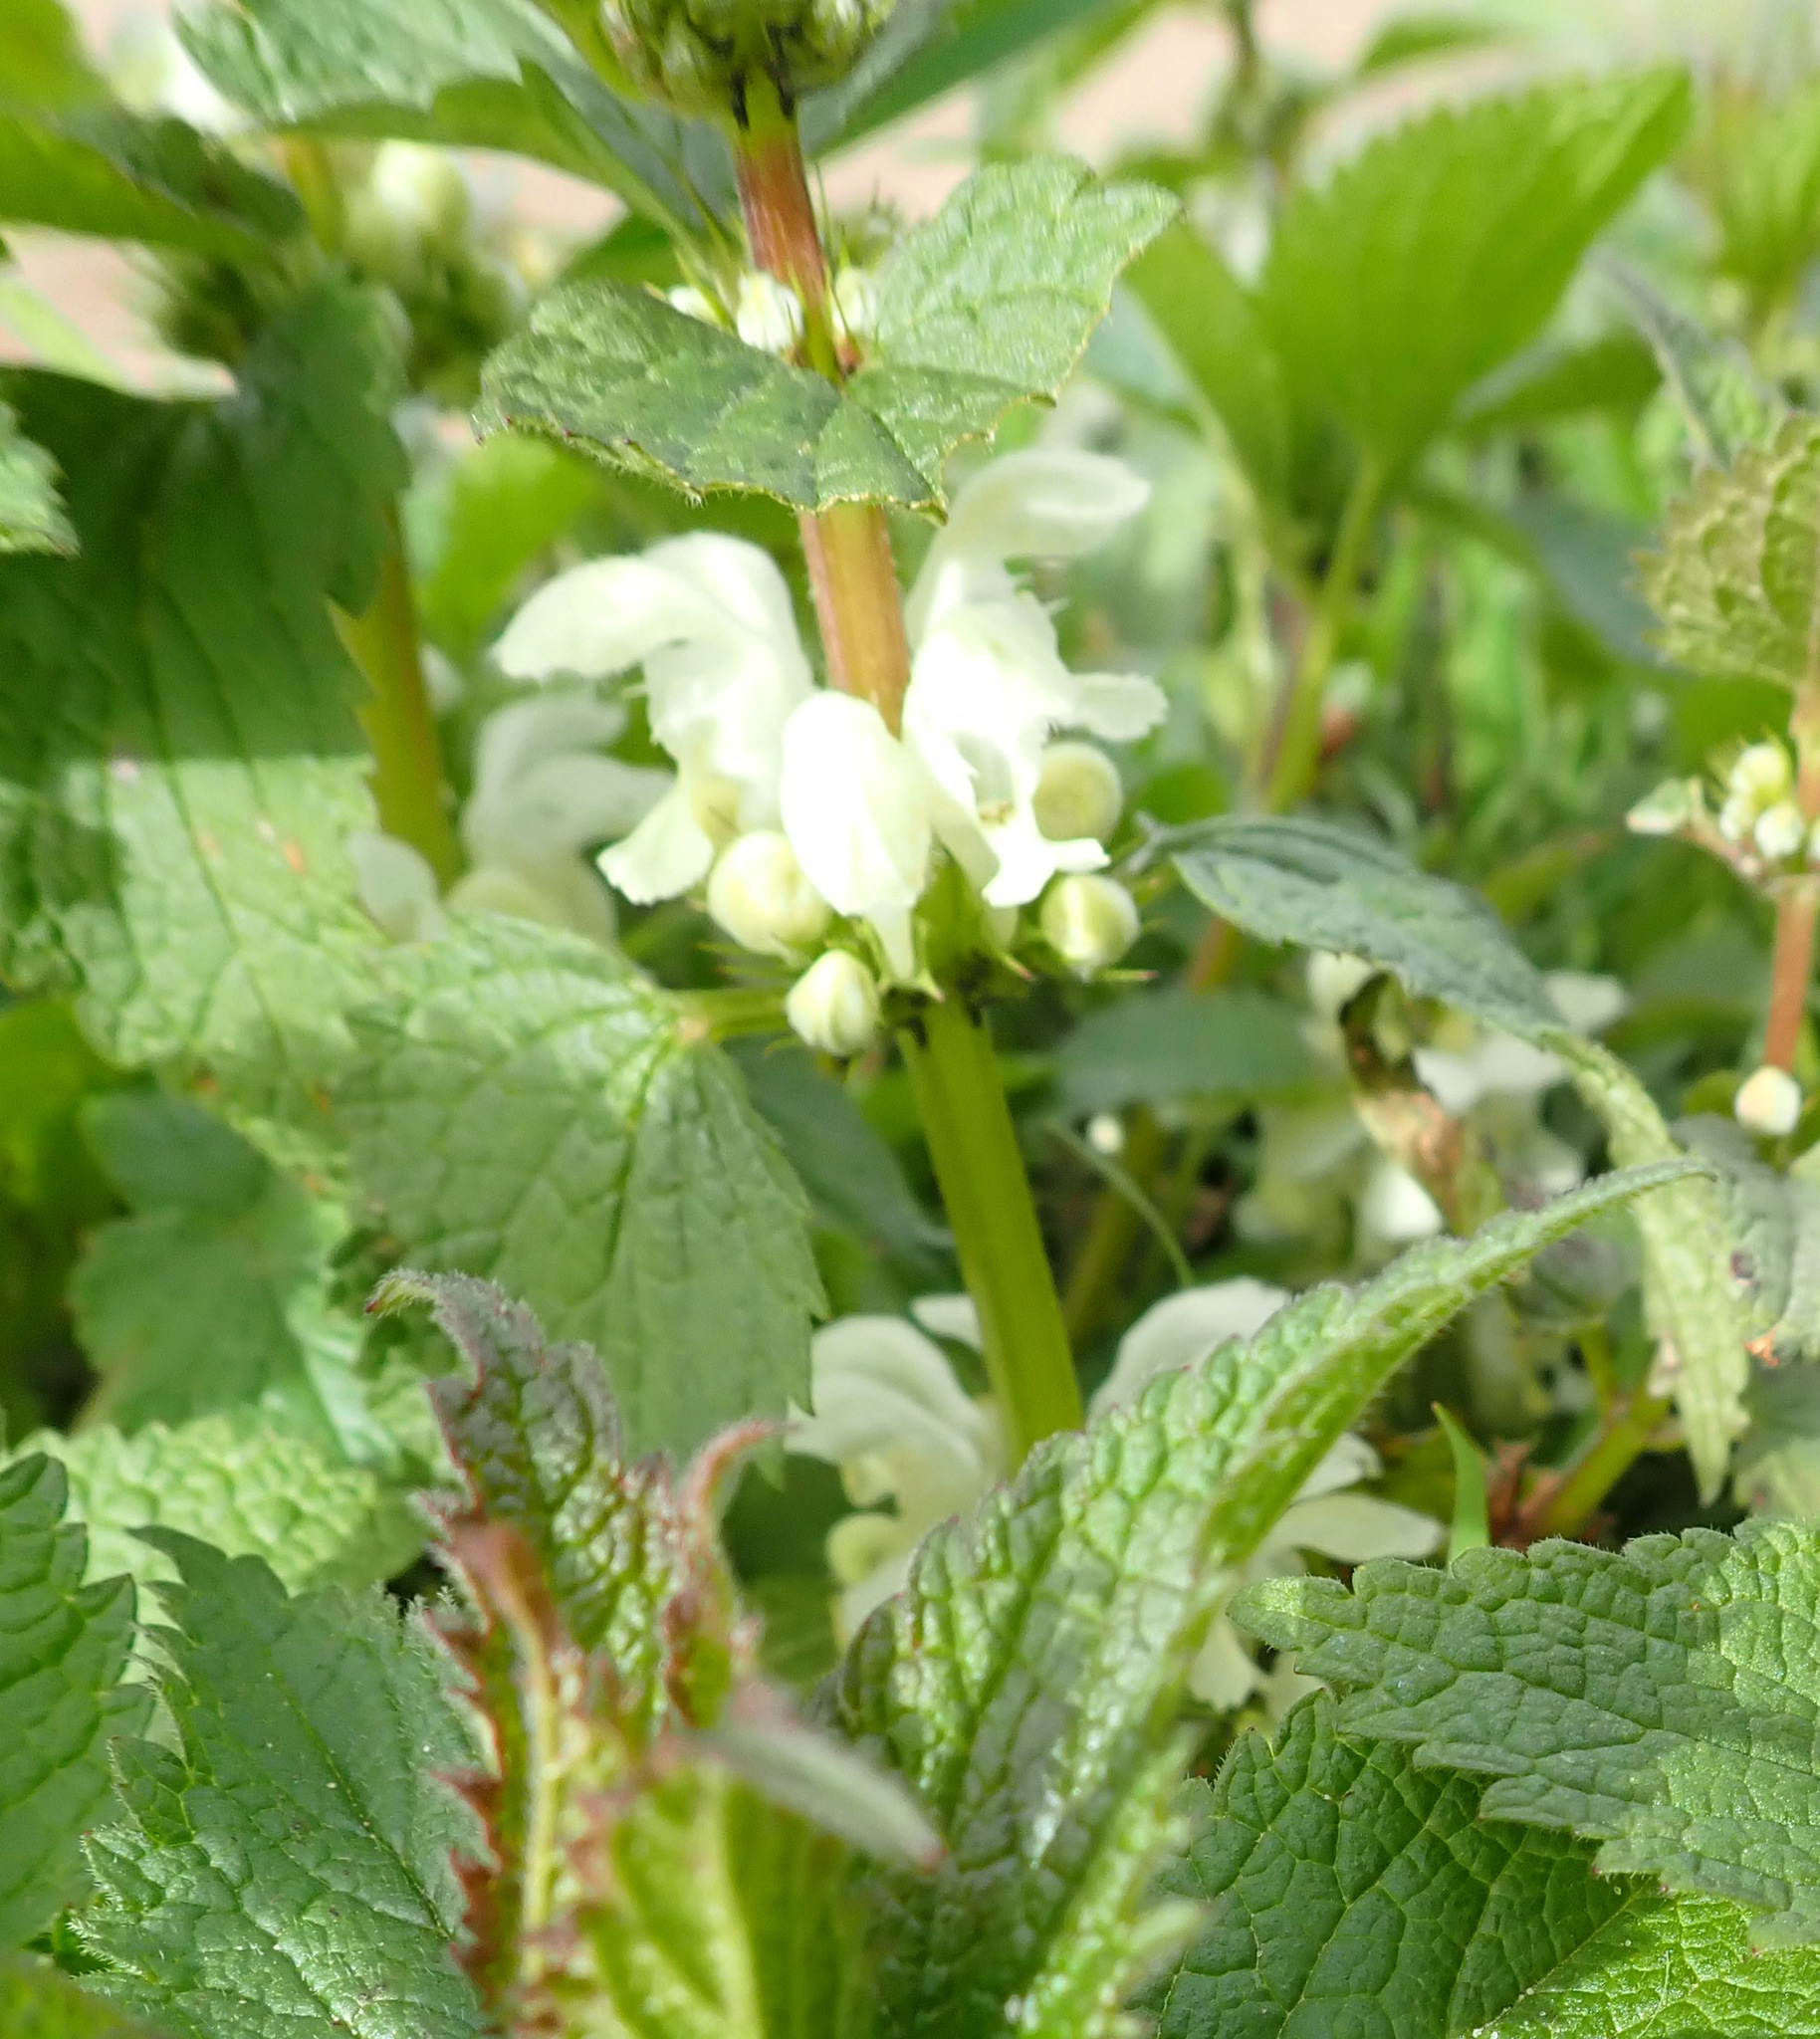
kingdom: Plantae
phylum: Tracheophyta
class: Magnoliopsida
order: Lamiales
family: Lamiaceae
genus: Lamium
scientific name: Lamium album
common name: White dead-nettle
